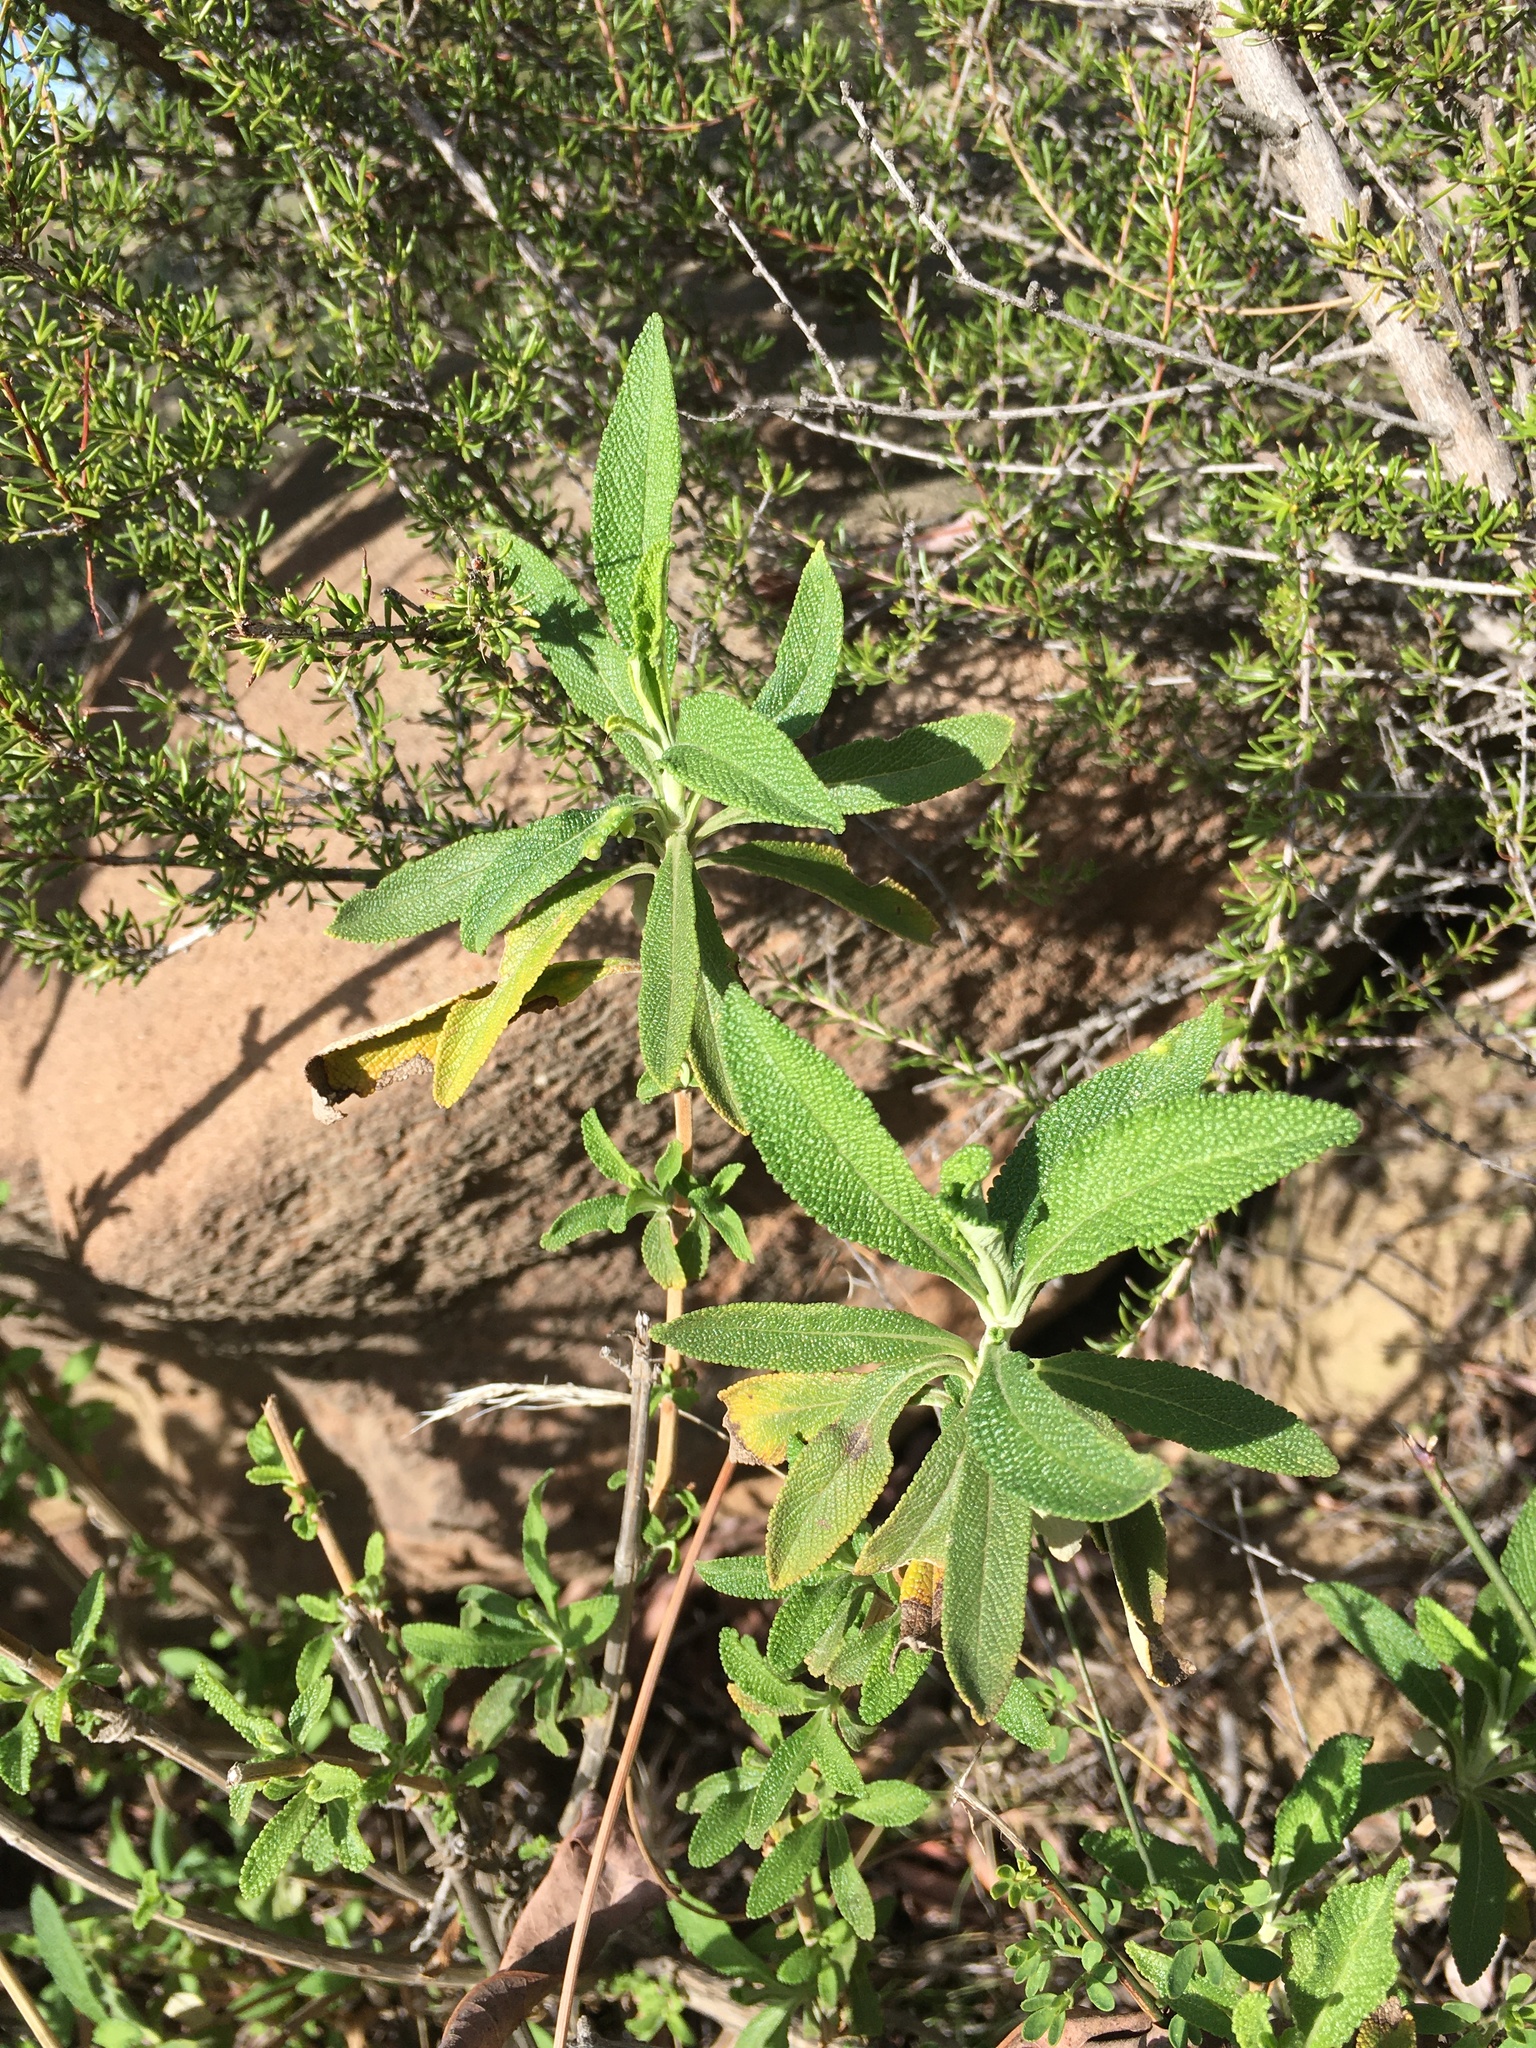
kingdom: Plantae
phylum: Tracheophyta
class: Magnoliopsida
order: Lamiales
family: Lamiaceae
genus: Salvia
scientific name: Salvia mellifera
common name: Black sage
